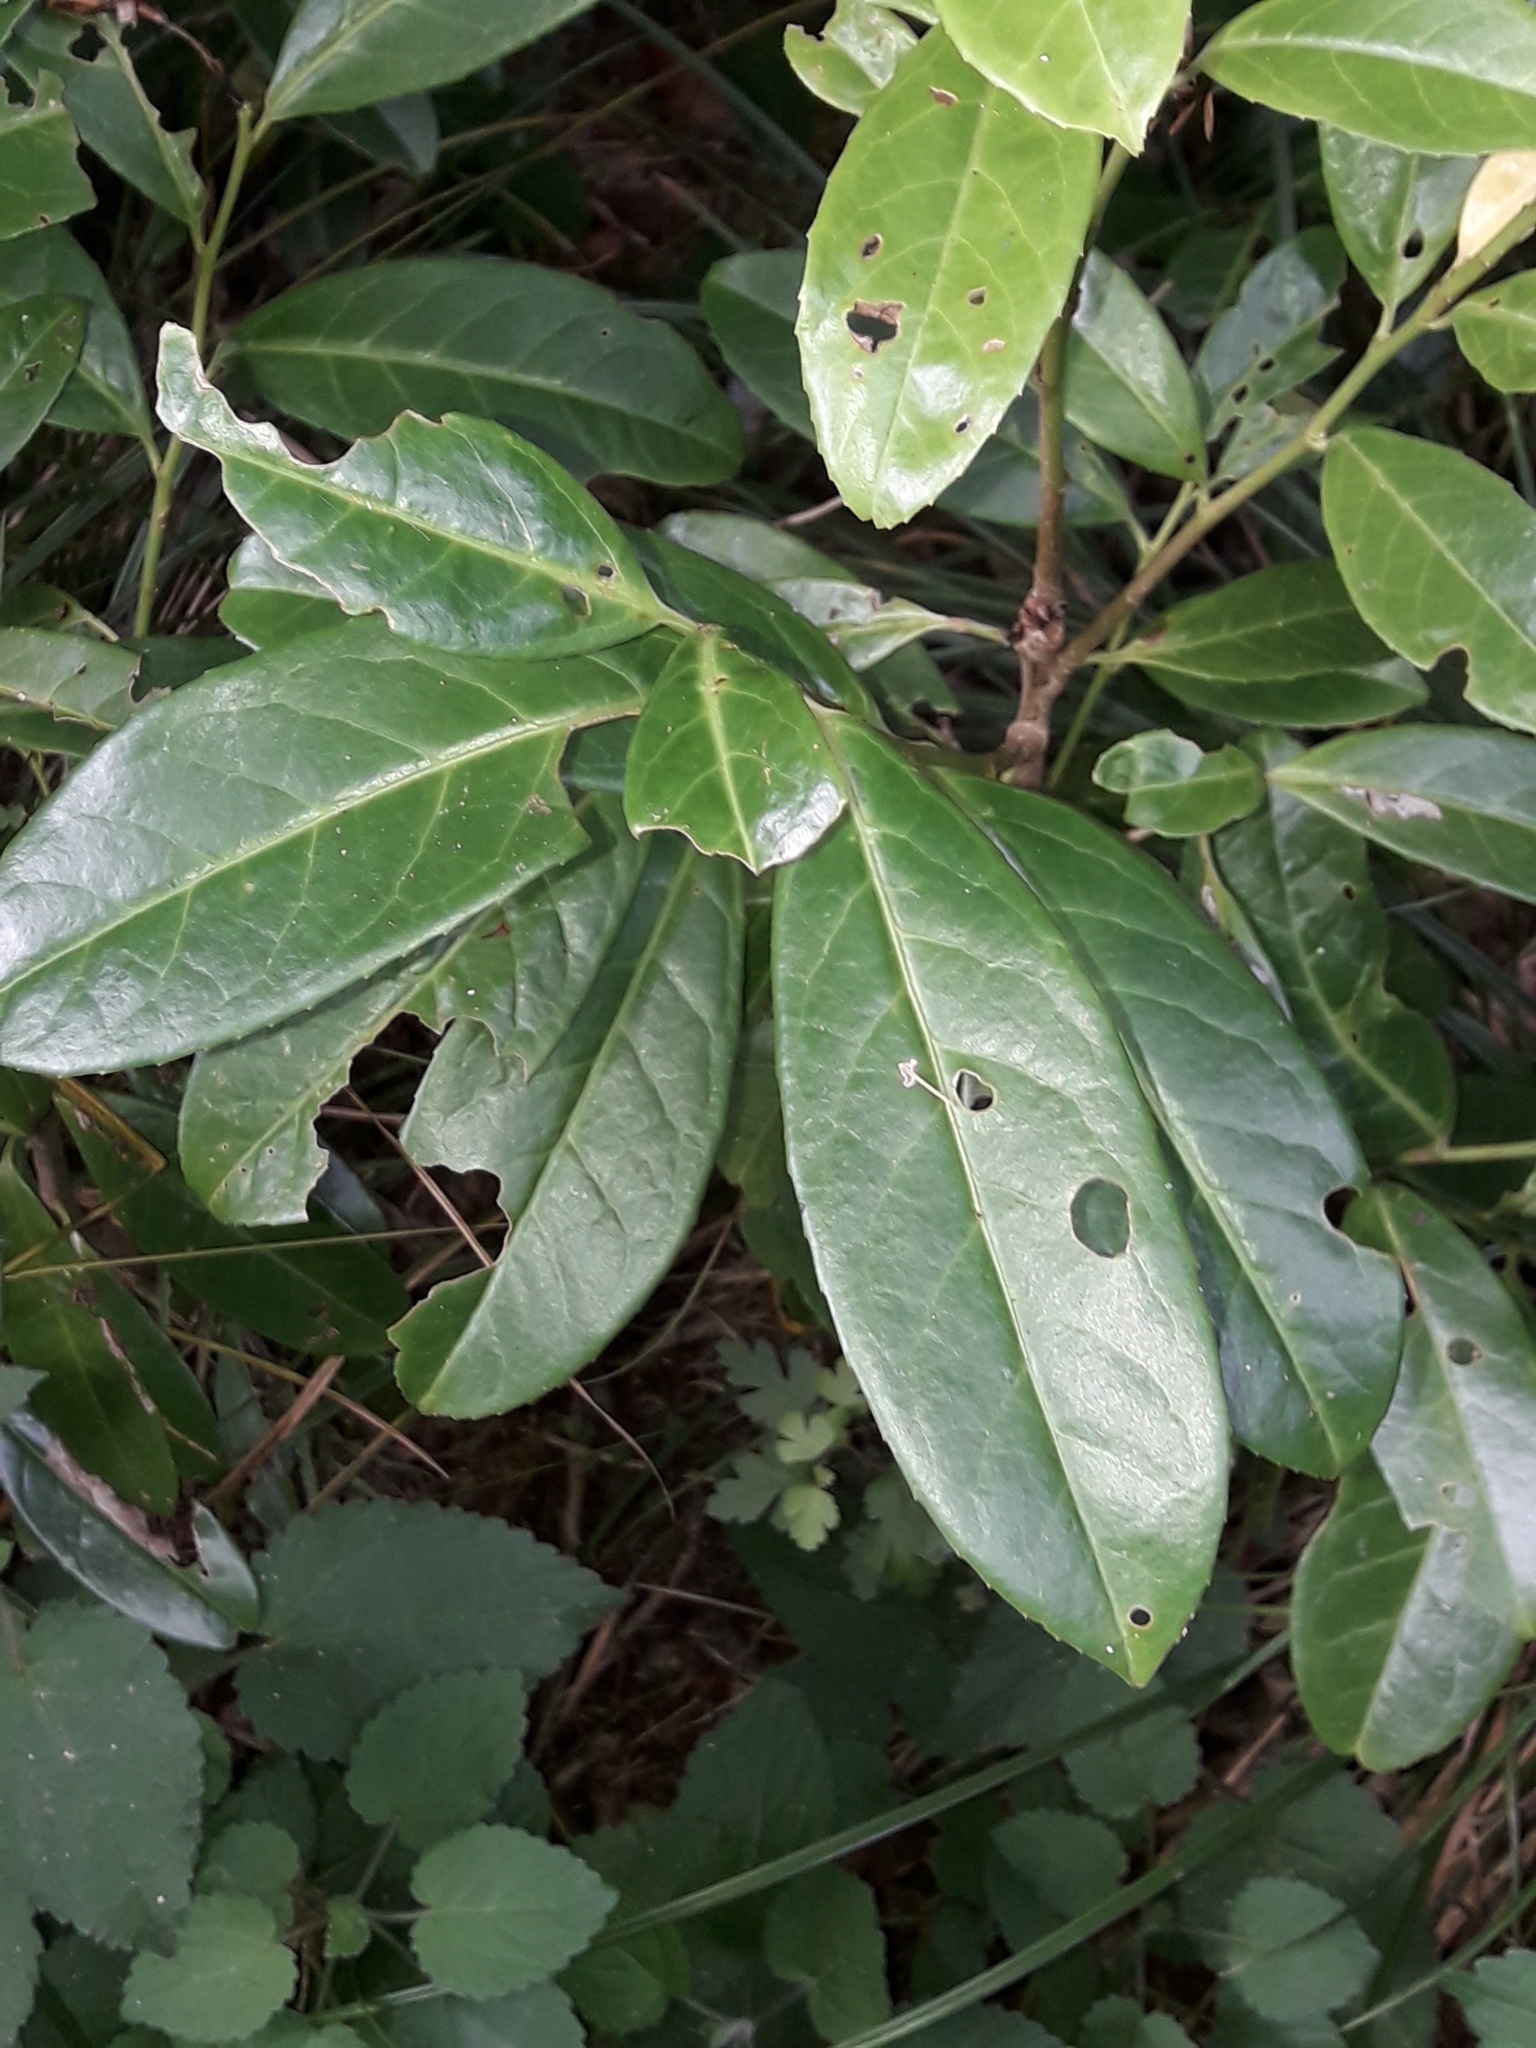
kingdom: Plantae
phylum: Tracheophyta
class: Magnoliopsida
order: Rosales
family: Rosaceae
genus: Prunus
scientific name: Prunus laurocerasus
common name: Cherry laurel
